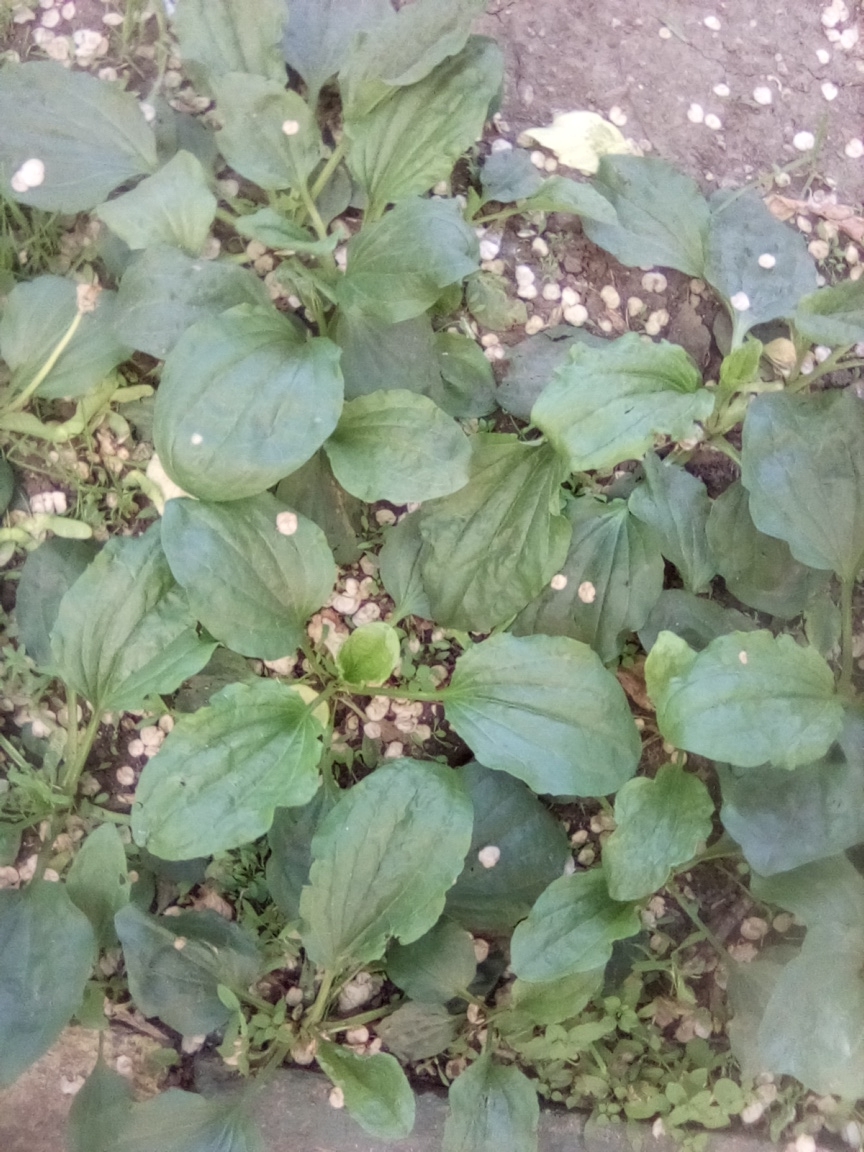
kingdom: Plantae
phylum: Tracheophyta
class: Magnoliopsida
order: Lamiales
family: Plantaginaceae
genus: Plantago
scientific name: Plantago major
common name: Common plantain
